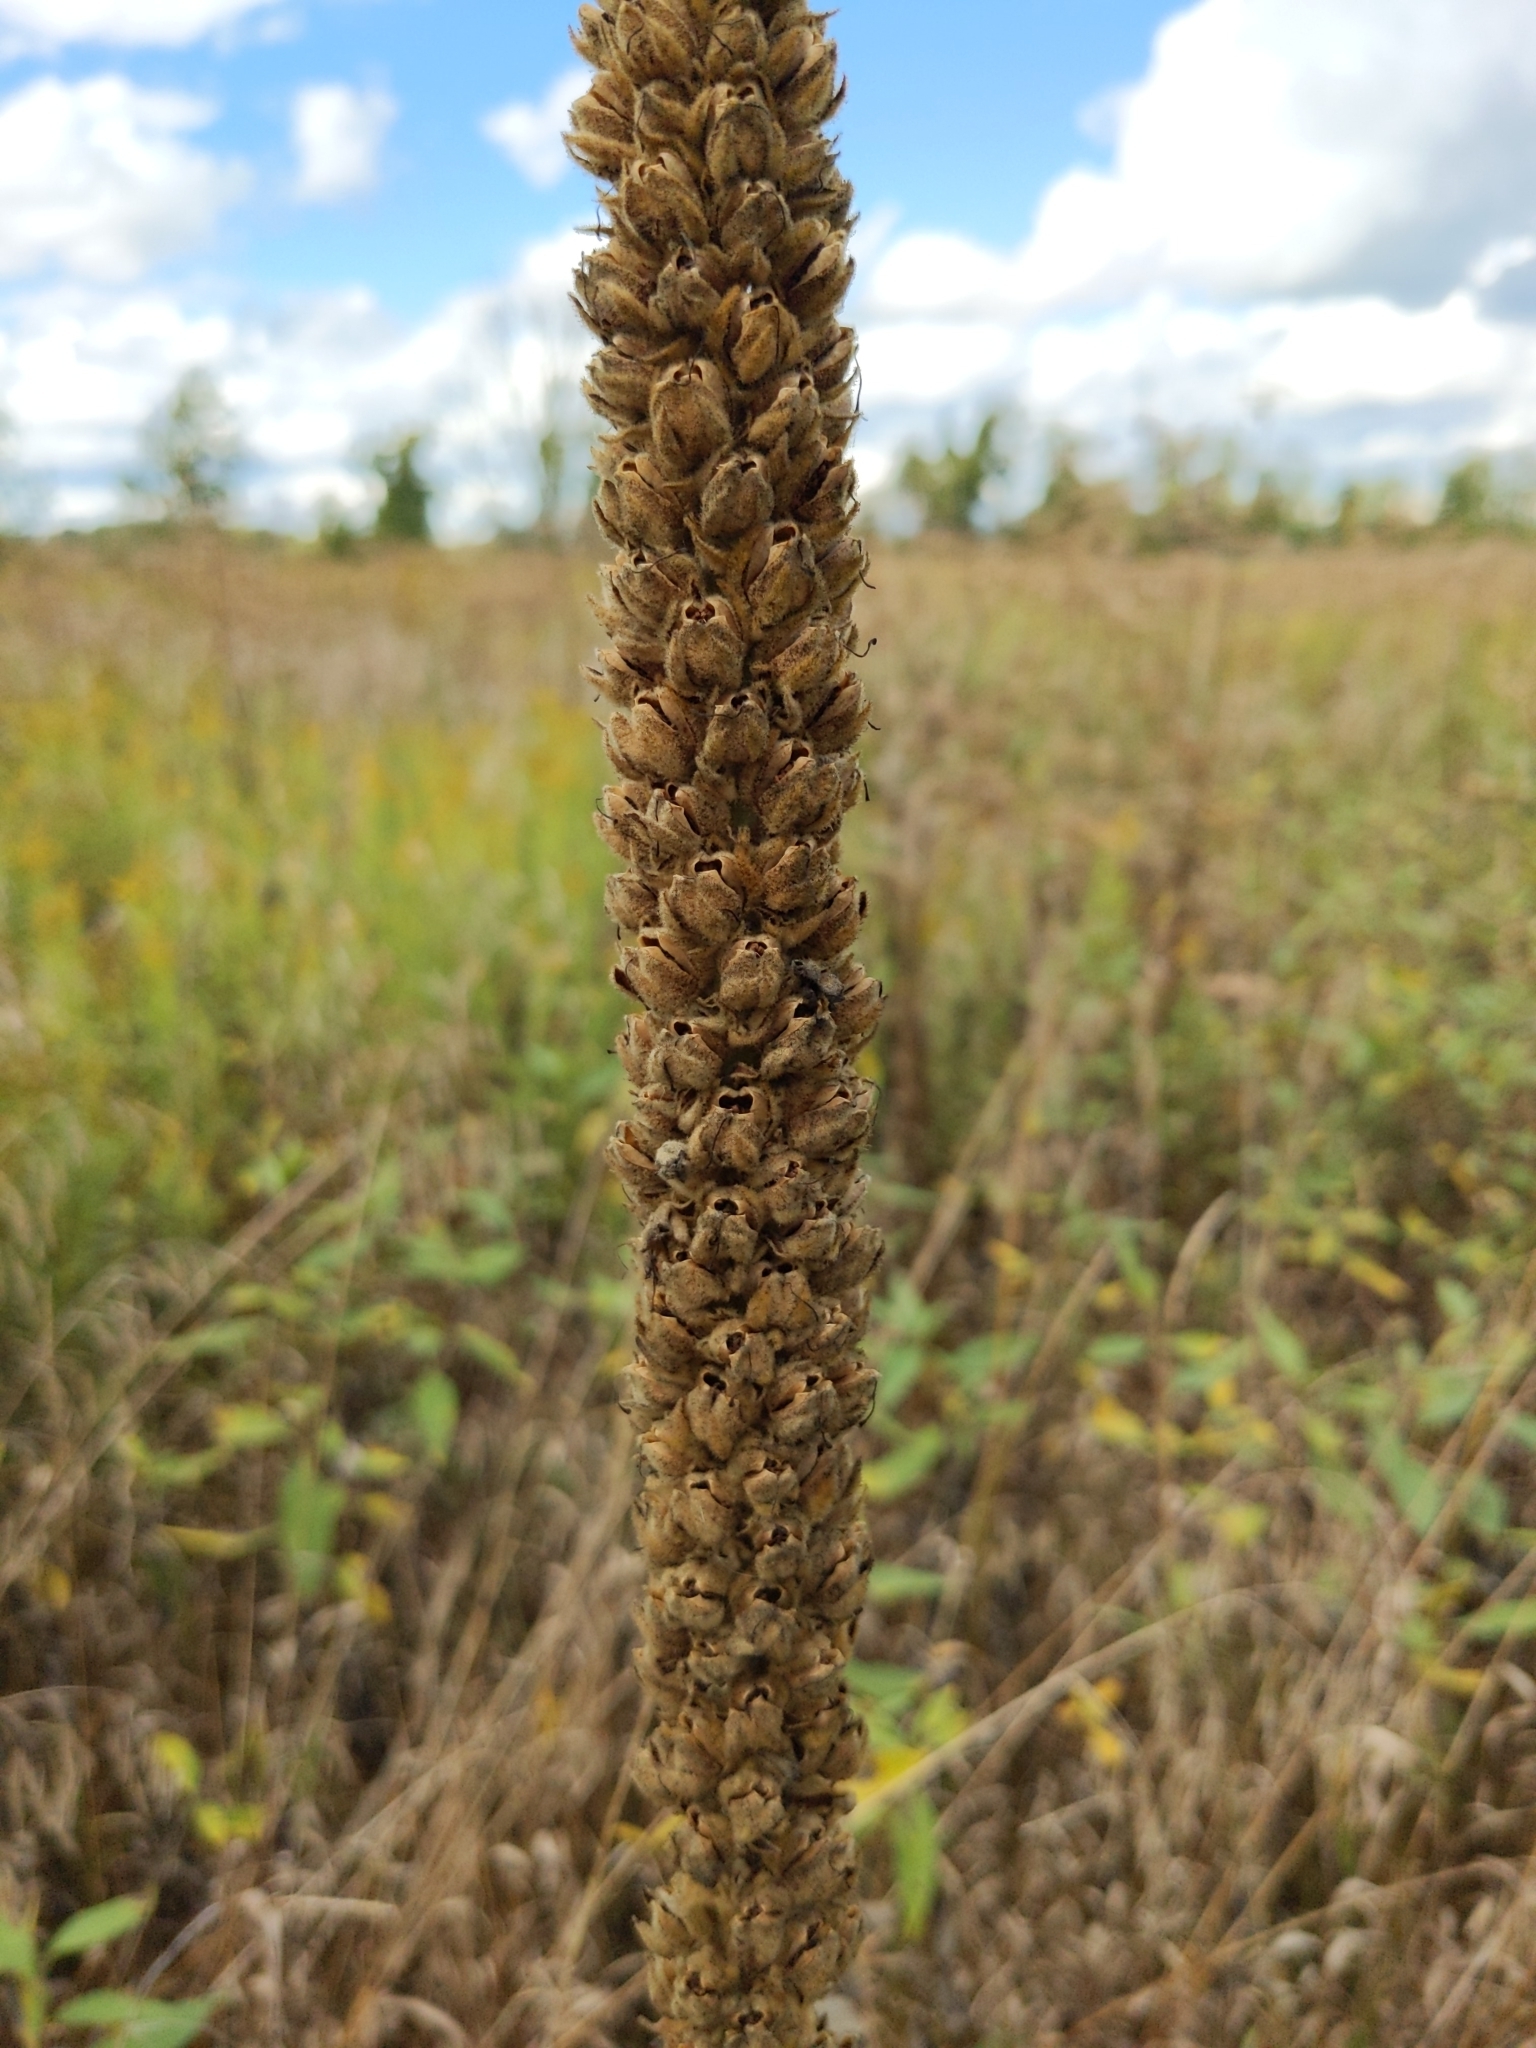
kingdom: Plantae
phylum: Tracheophyta
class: Magnoliopsida
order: Lamiales
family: Scrophulariaceae
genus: Verbascum
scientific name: Verbascum thapsus
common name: Common mullein
